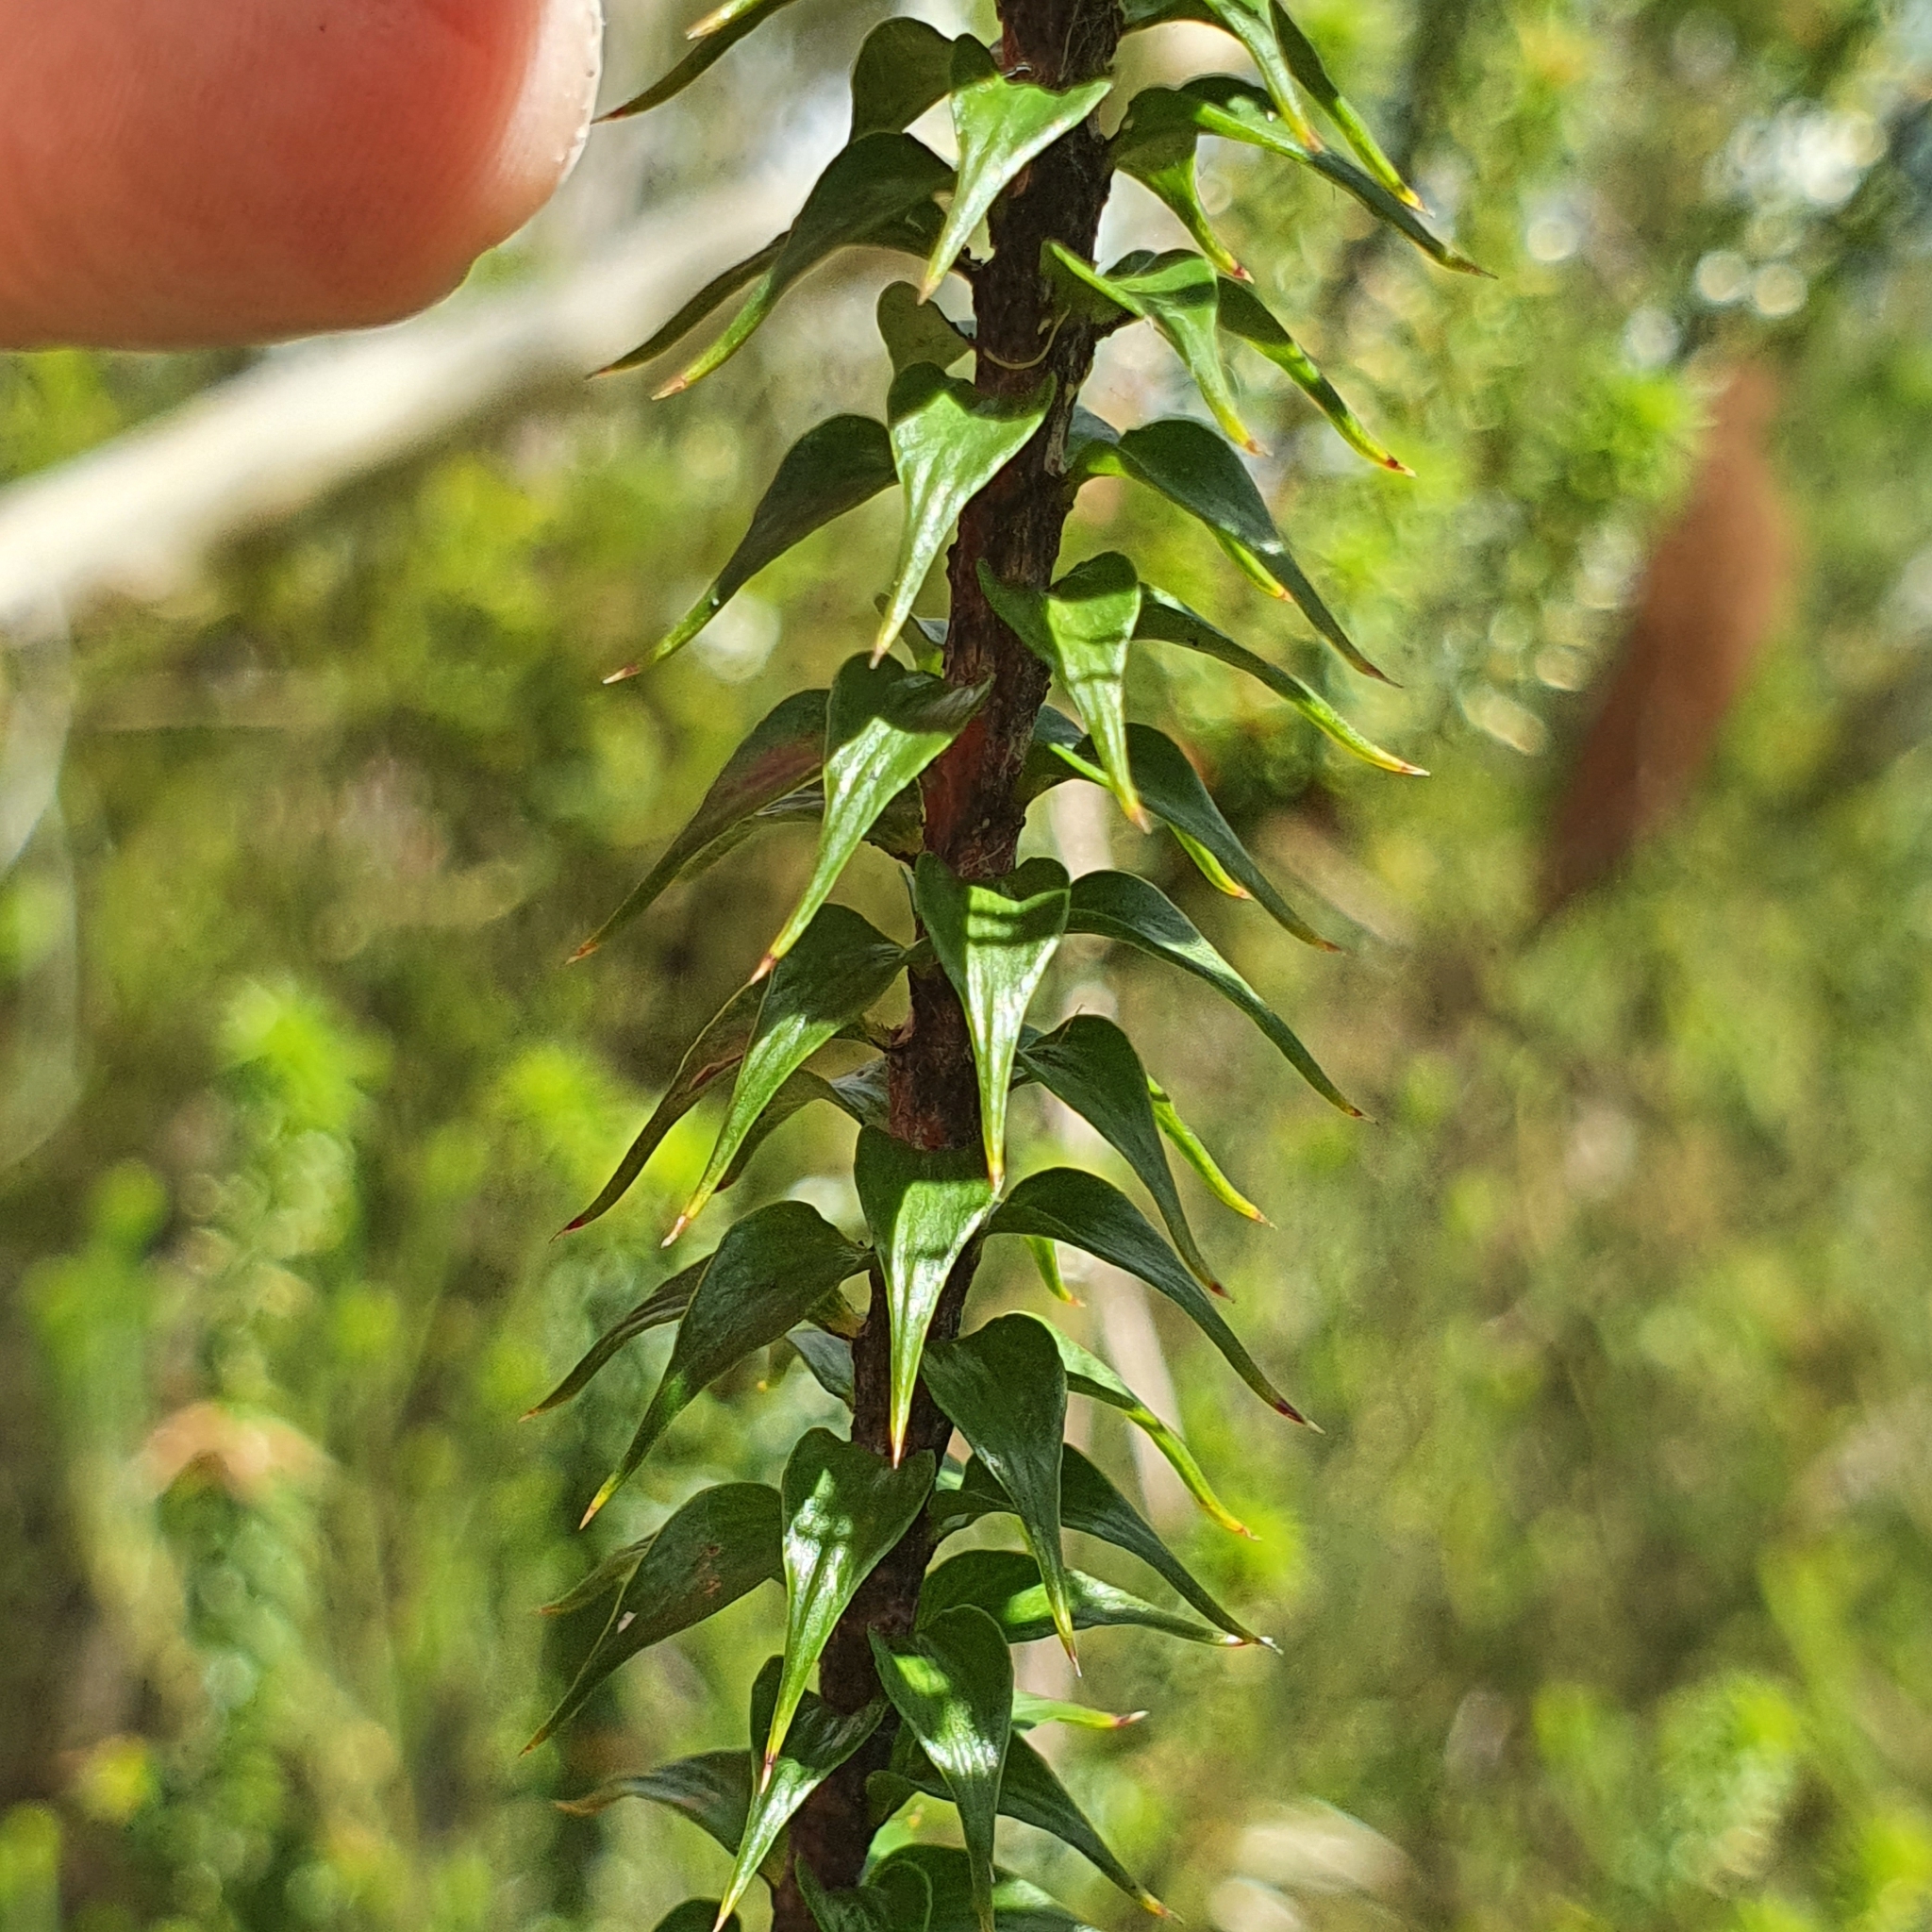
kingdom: Plantae
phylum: Tracheophyta
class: Magnoliopsida
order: Ericales
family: Ericaceae
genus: Woollsia
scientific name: Woollsia pungens
